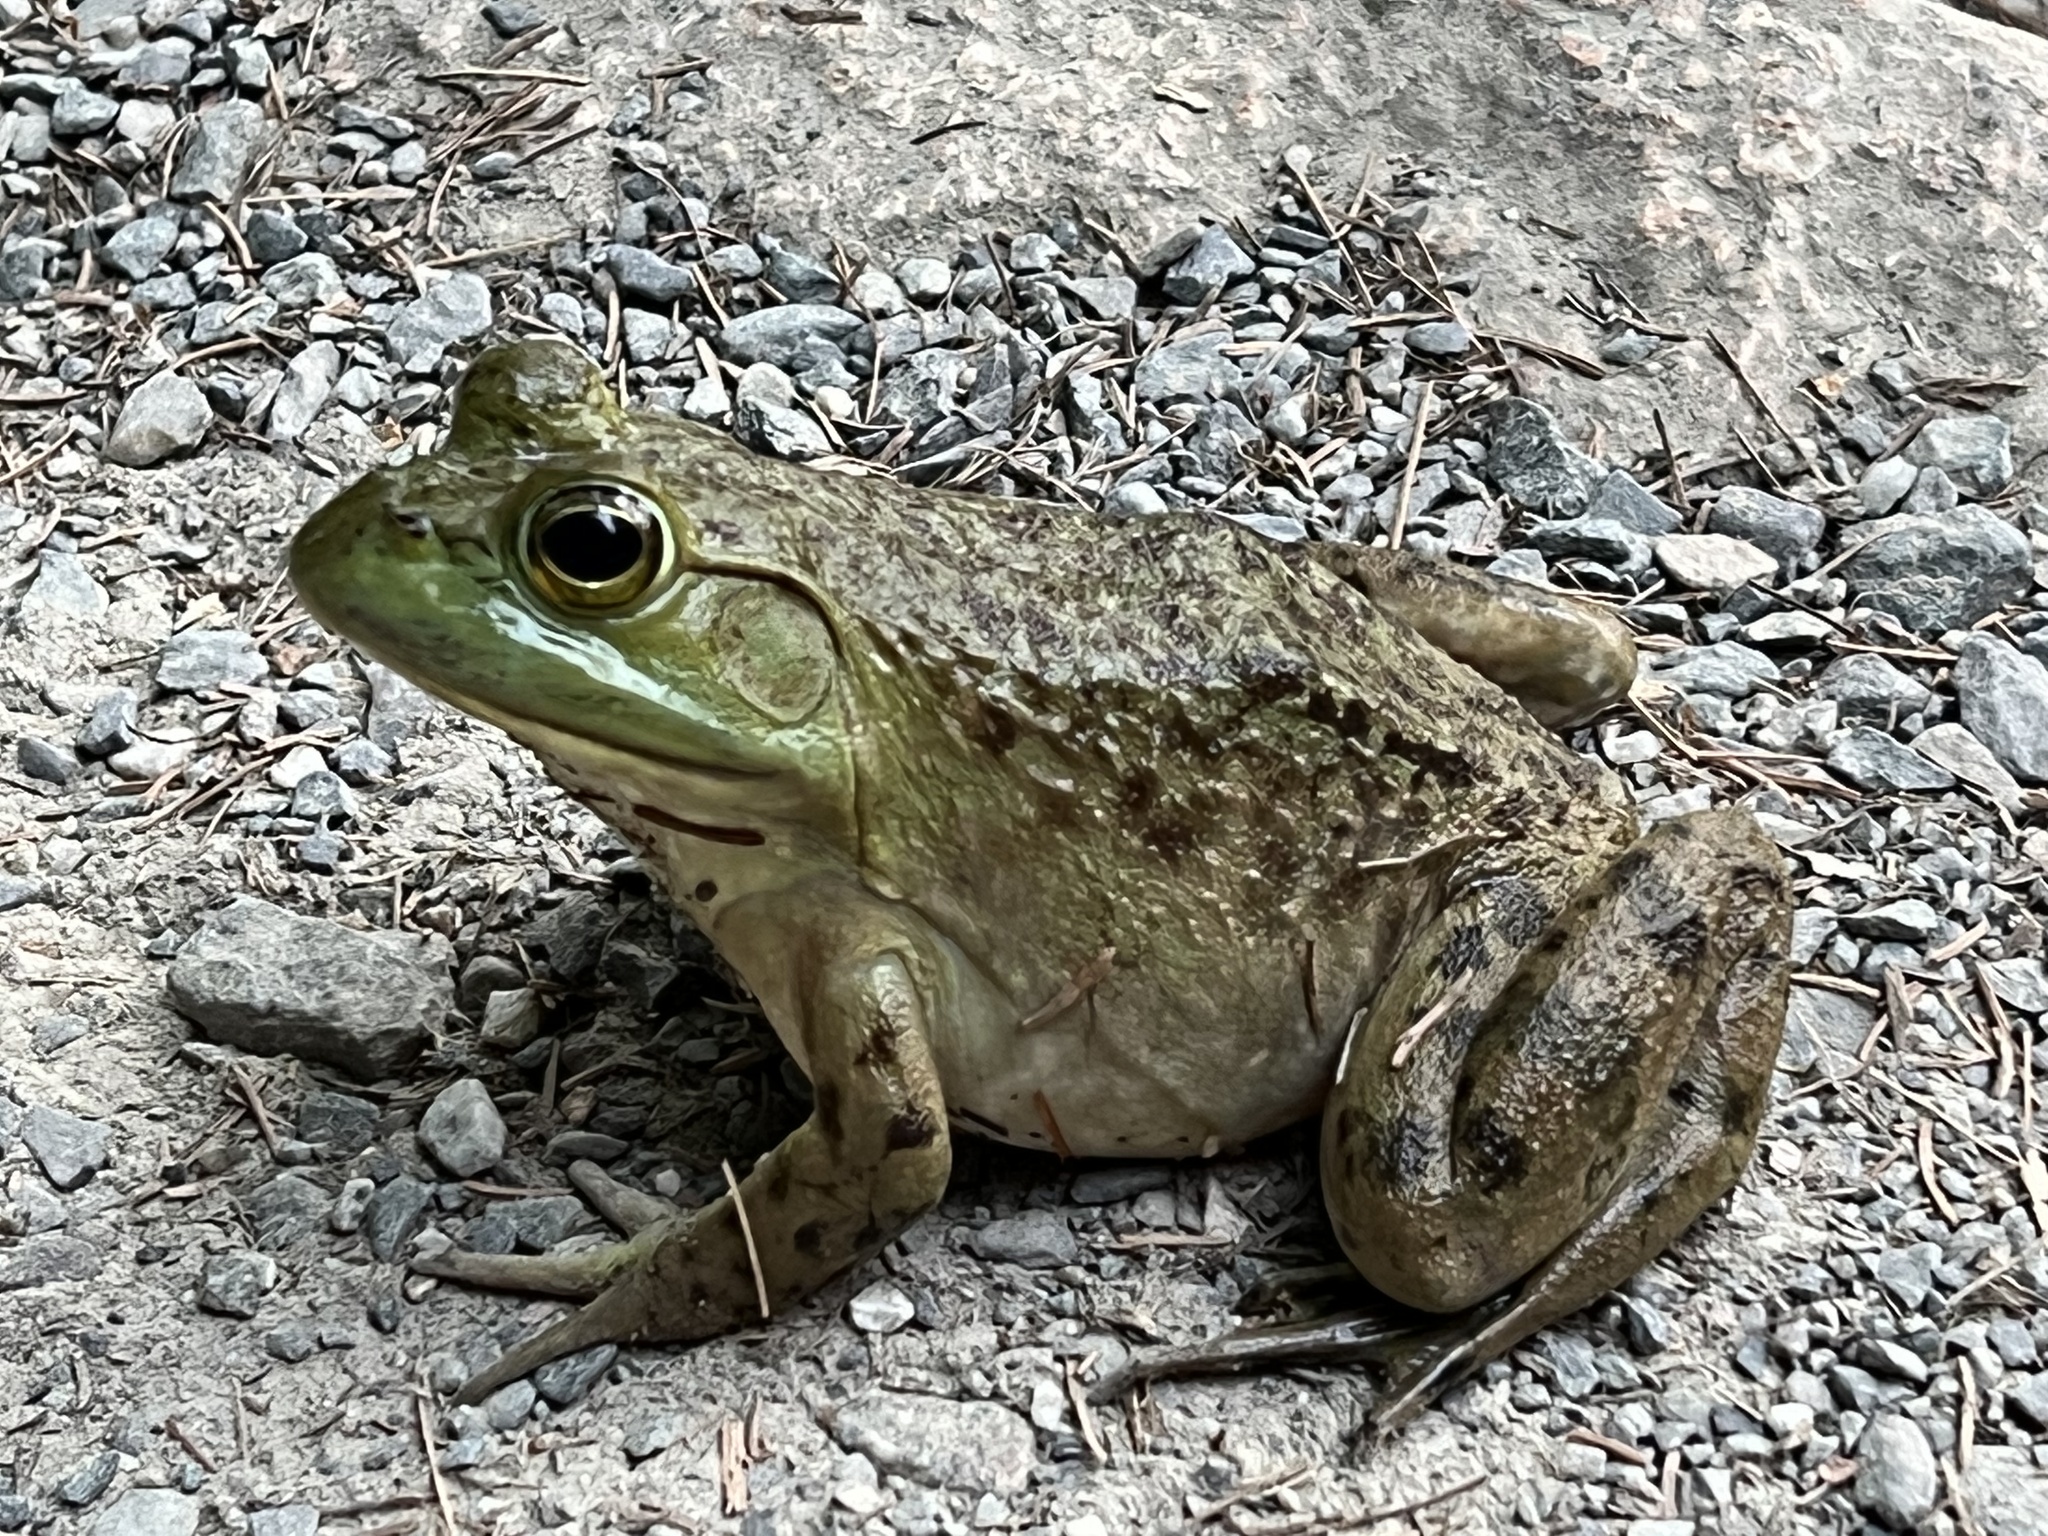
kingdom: Animalia
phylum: Chordata
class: Amphibia
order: Anura
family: Ranidae
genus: Lithobates
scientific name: Lithobates catesbeianus
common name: American bullfrog
